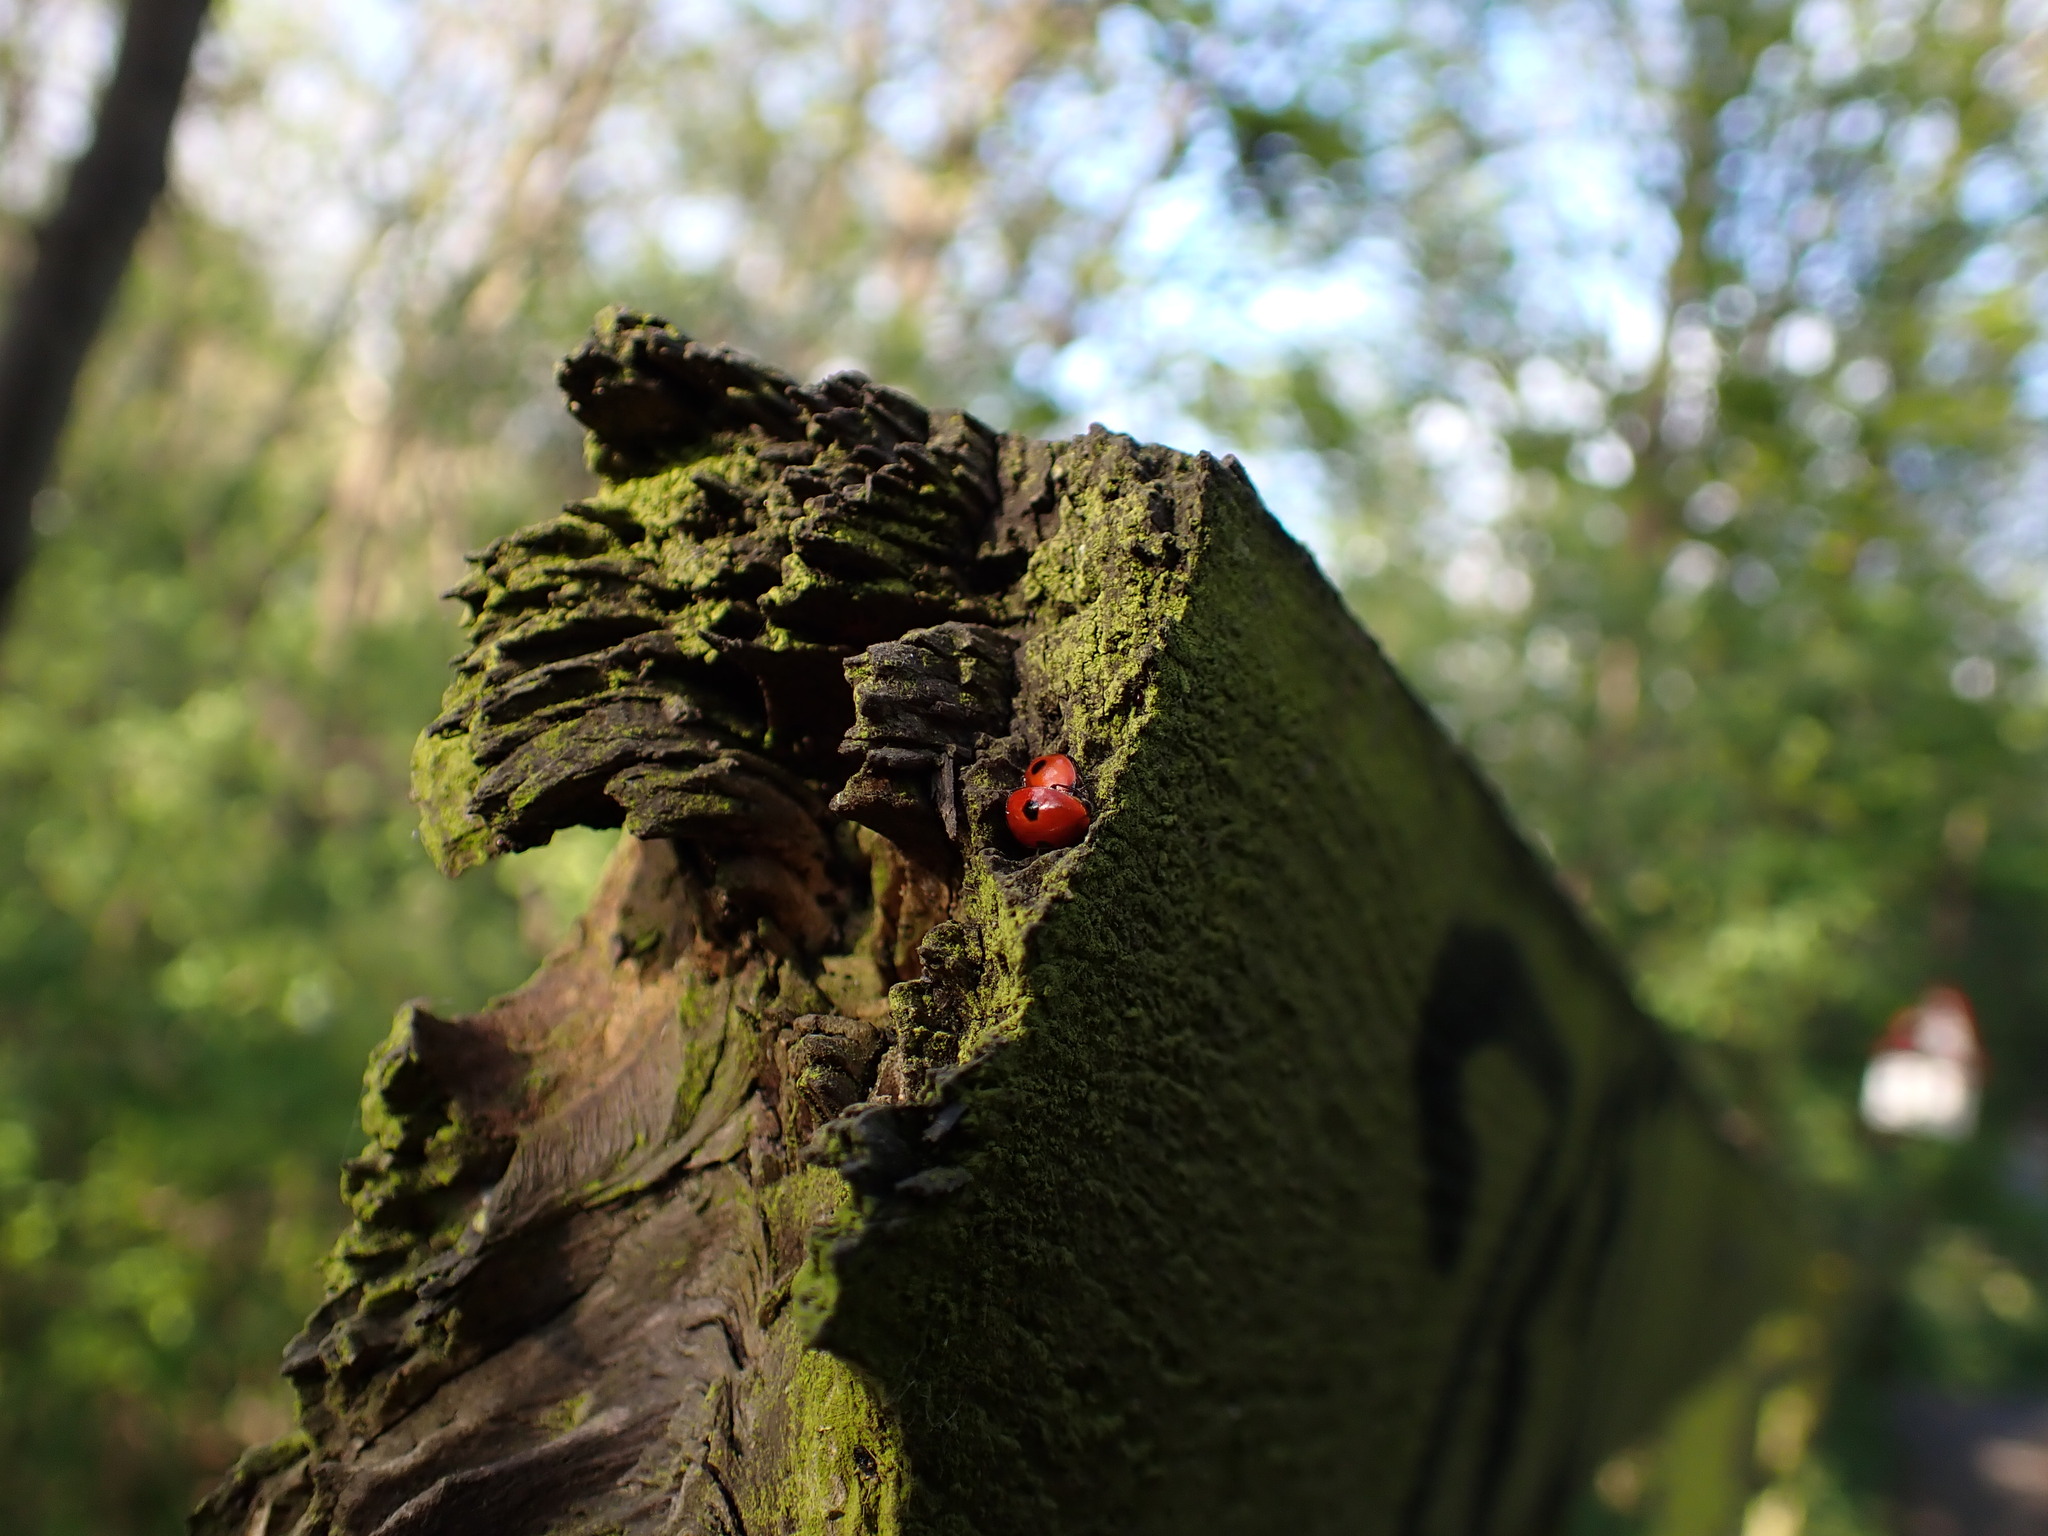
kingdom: Animalia
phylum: Arthropoda
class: Insecta
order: Coleoptera
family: Coccinellidae
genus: Adalia
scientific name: Adalia bipunctata
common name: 2-spot ladybird
